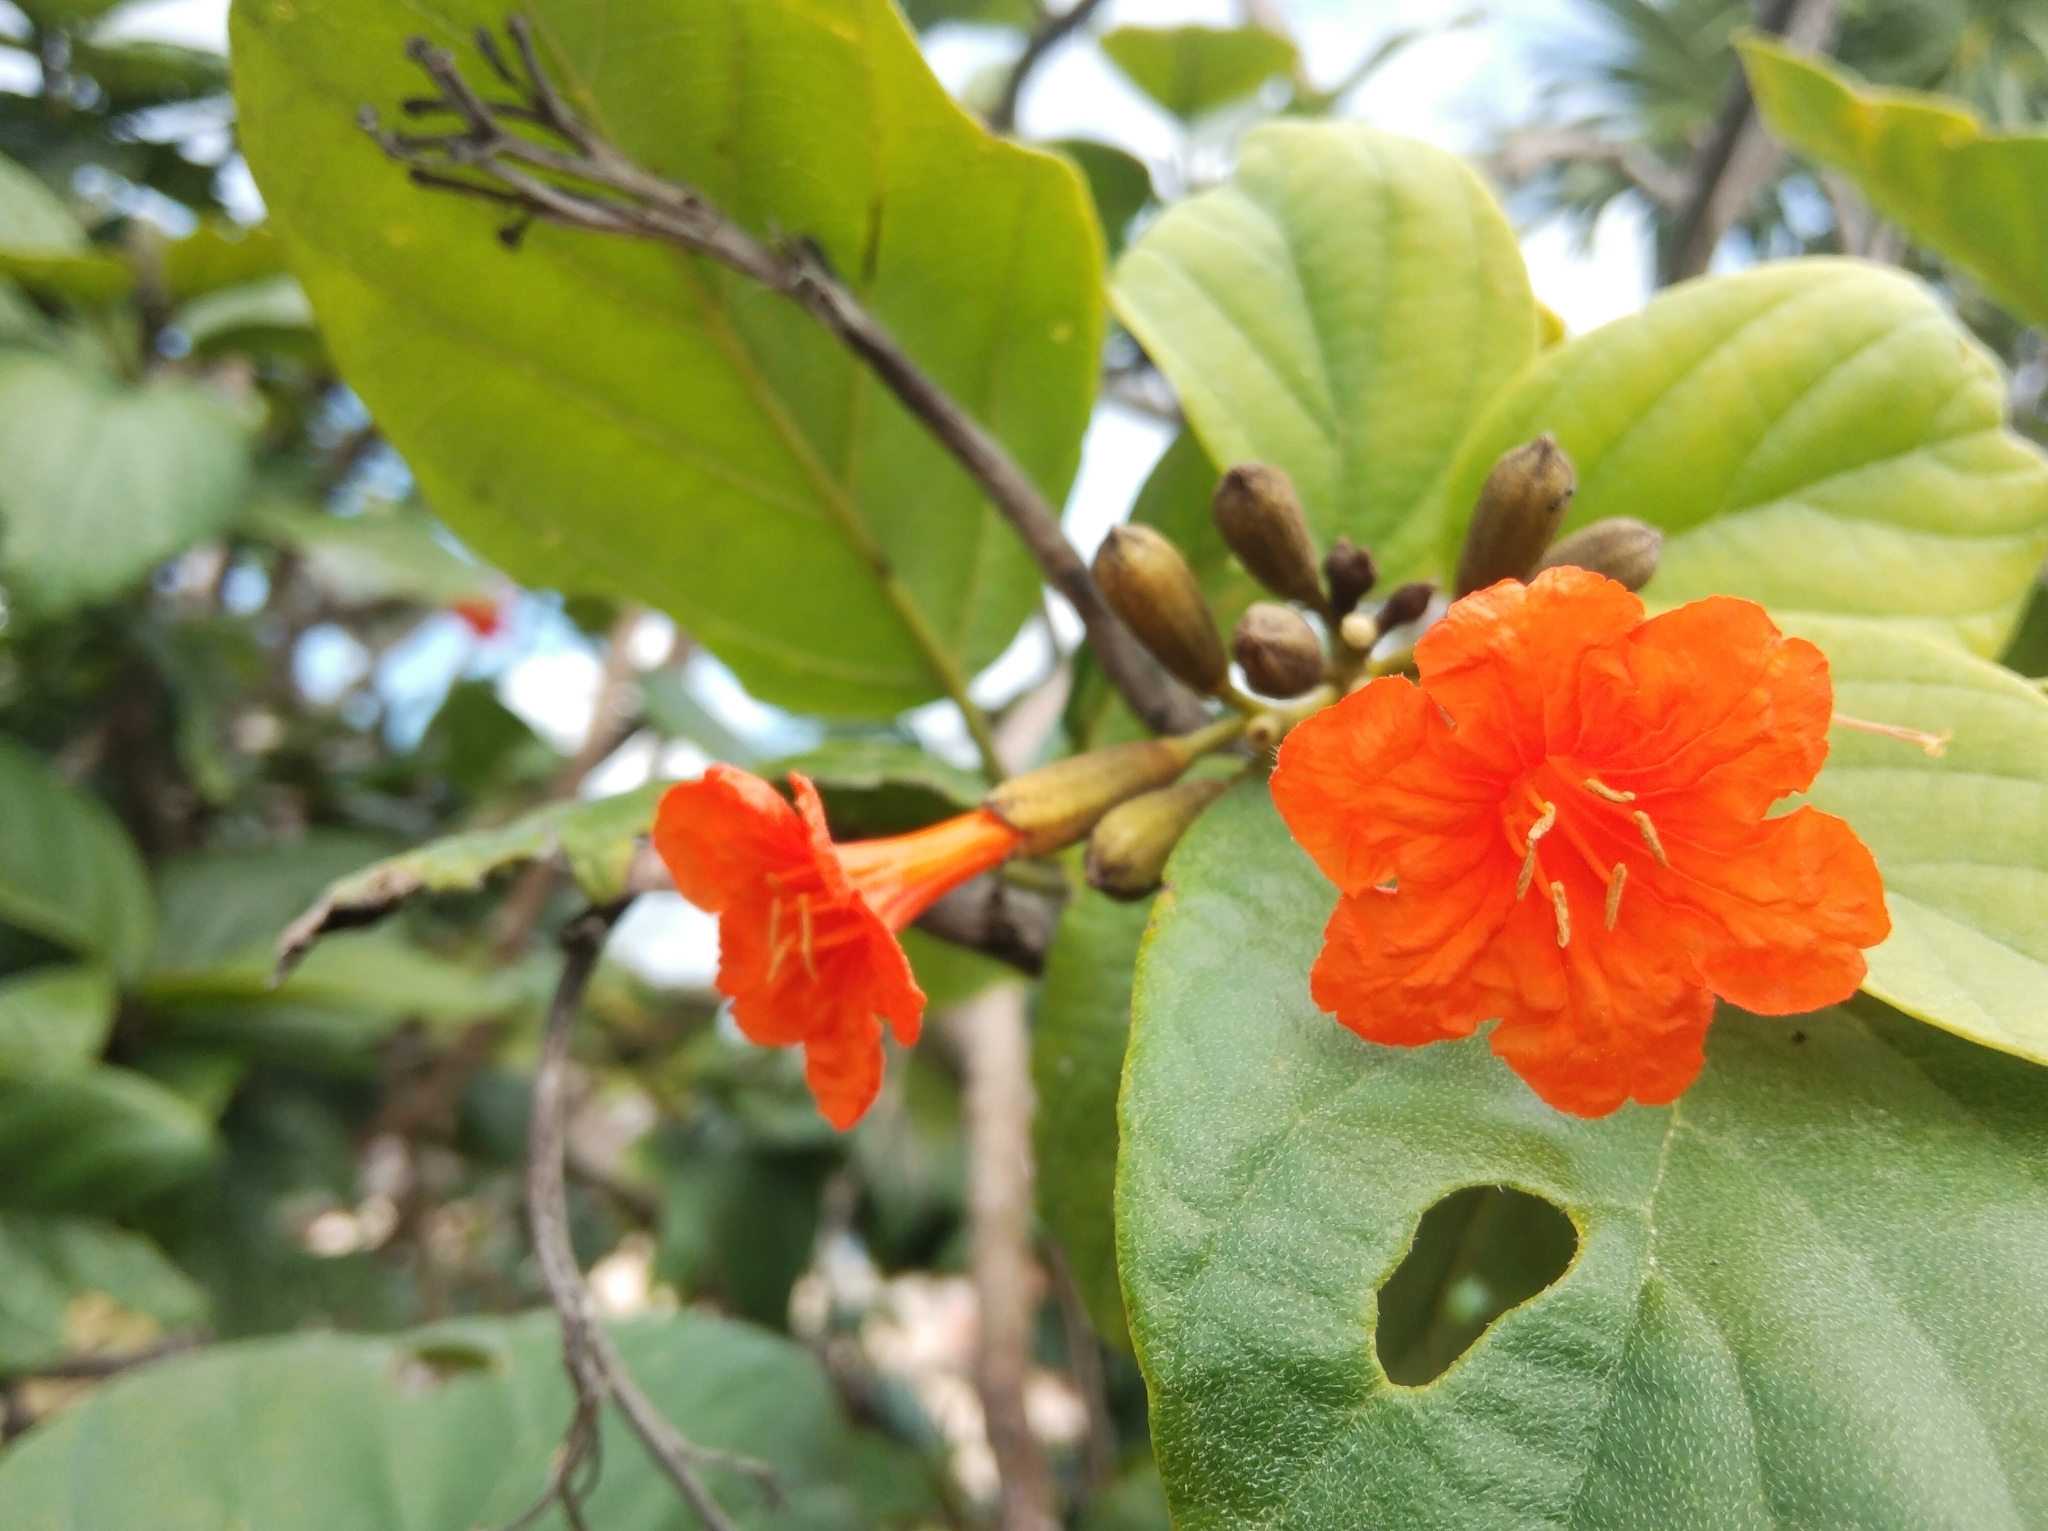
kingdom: Plantae
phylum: Tracheophyta
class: Magnoliopsida
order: Boraginales
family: Cordiaceae
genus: Cordia
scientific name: Cordia sebestena
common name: Largeleaf geigertree
